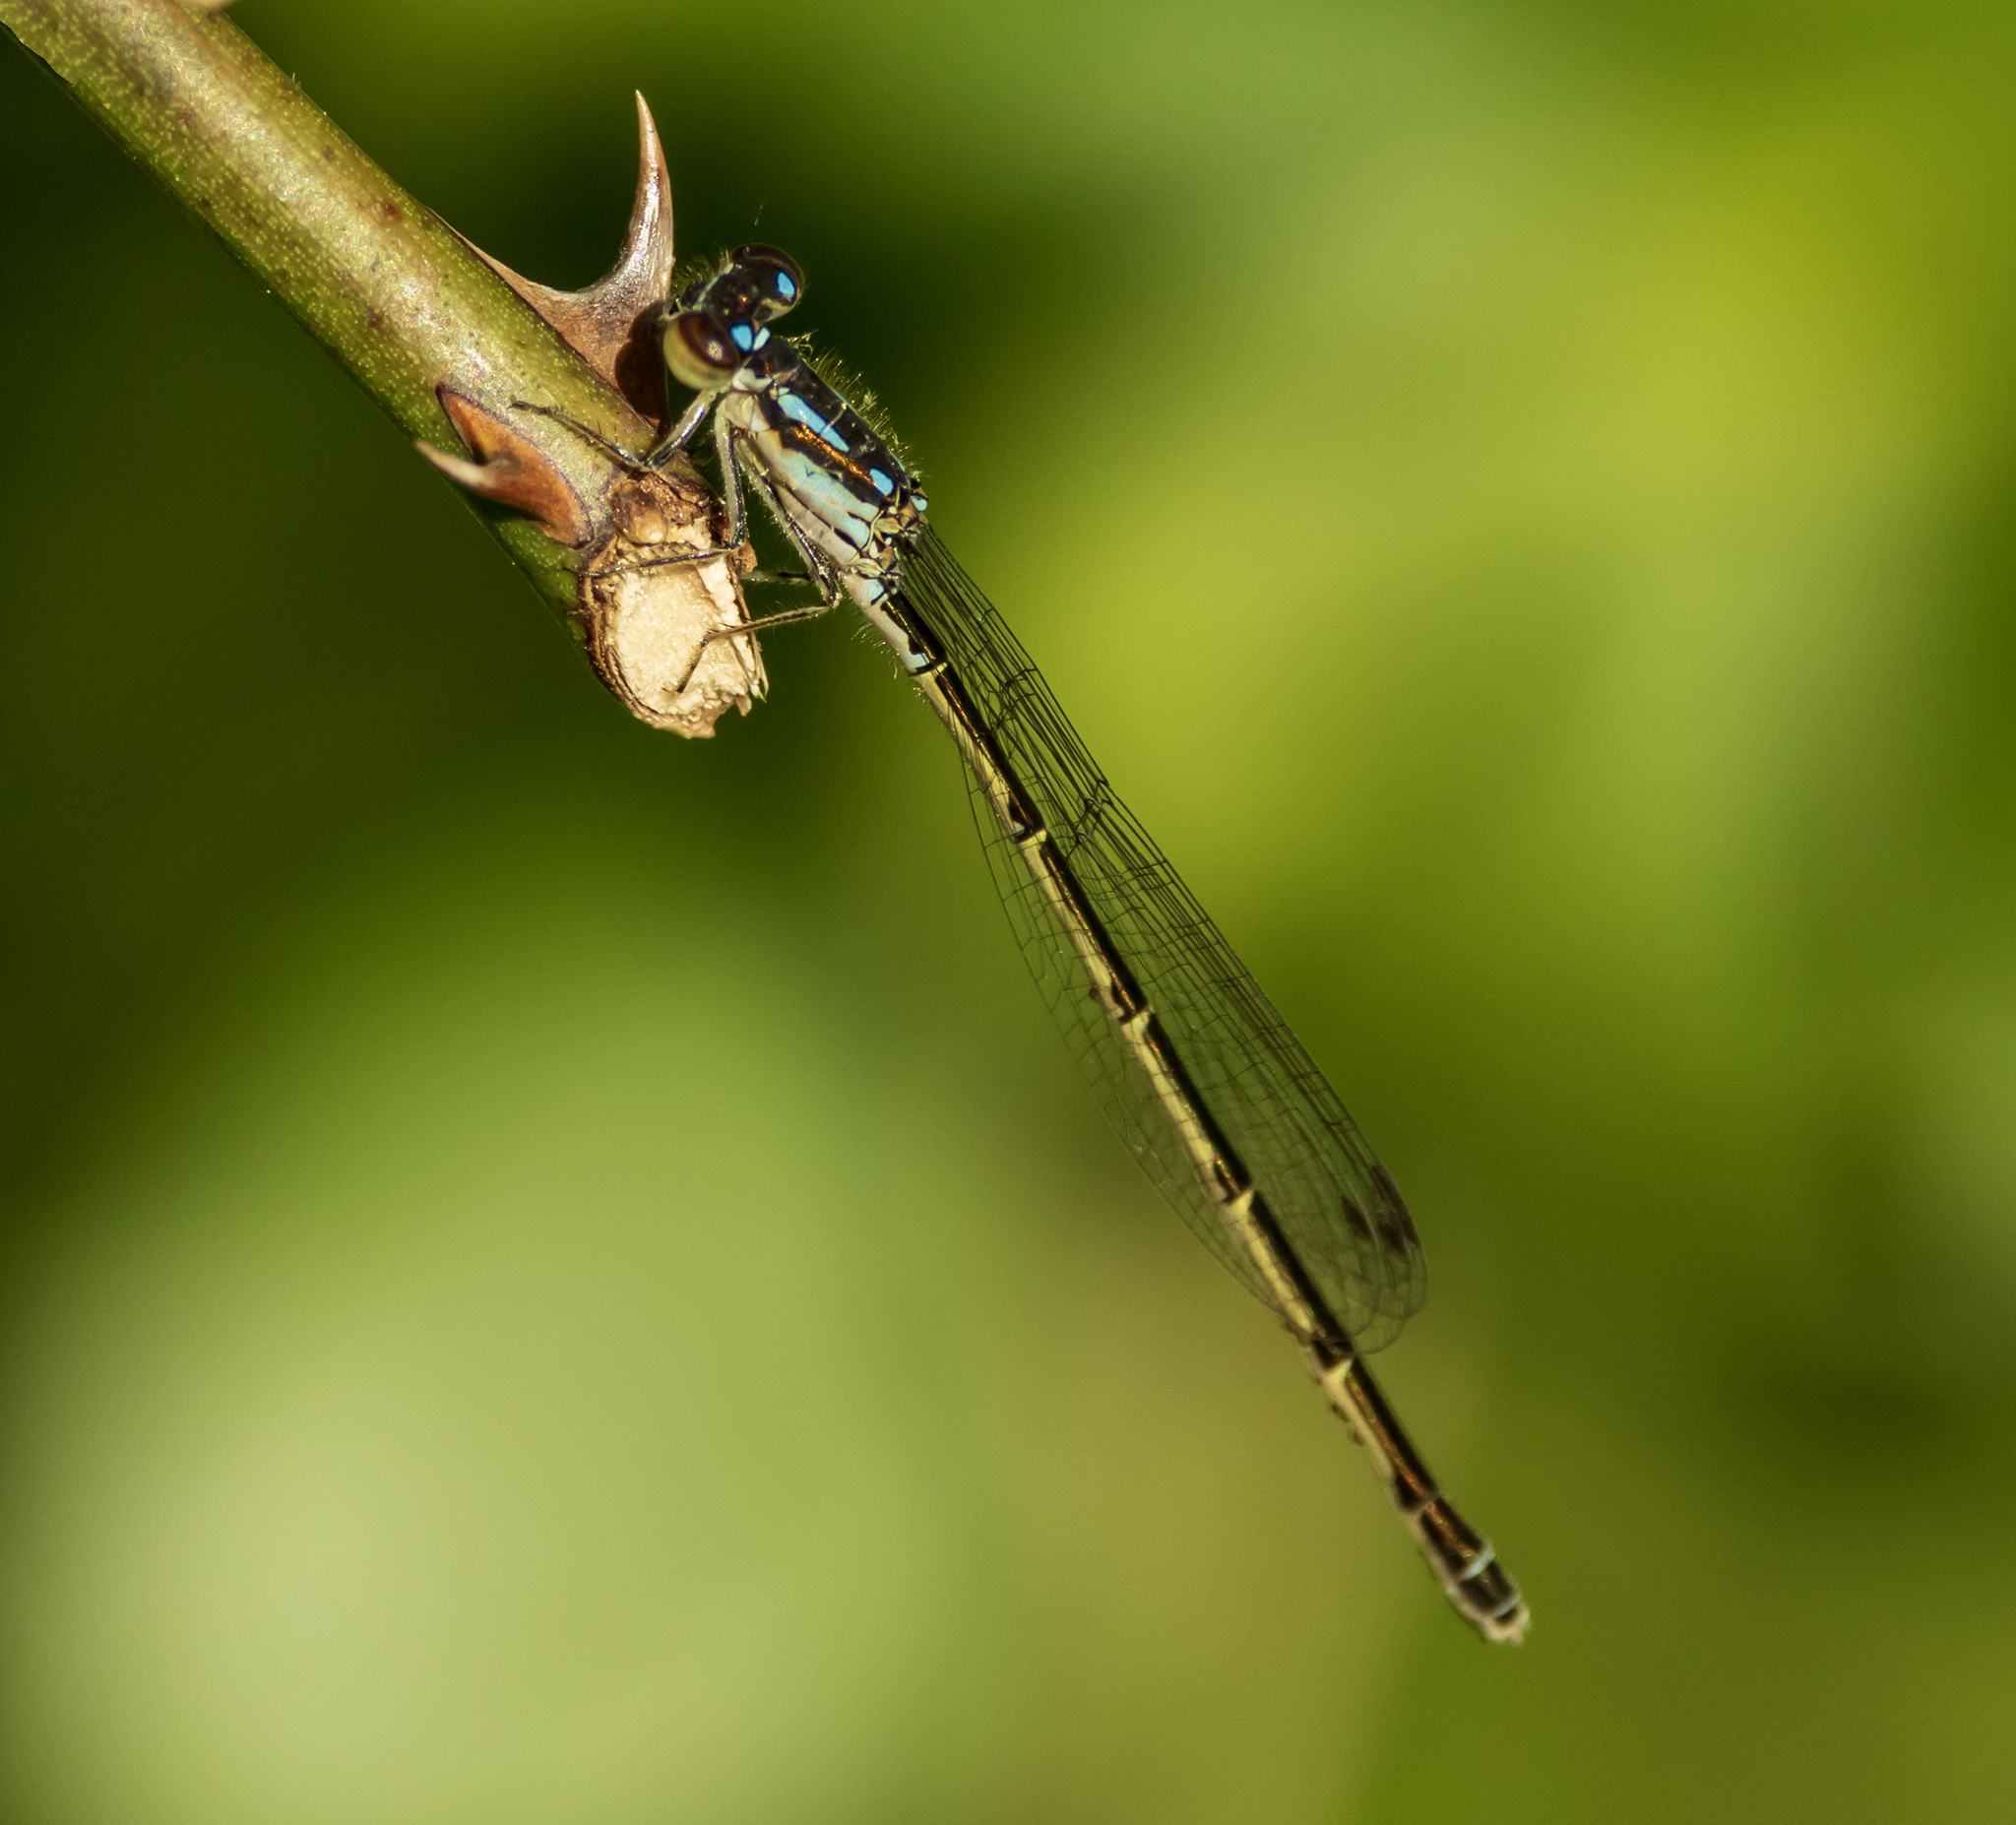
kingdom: Animalia
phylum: Arthropoda
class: Insecta
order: Odonata
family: Coenagrionidae
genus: Ischnura
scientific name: Ischnura posita
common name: Fragile forktail
